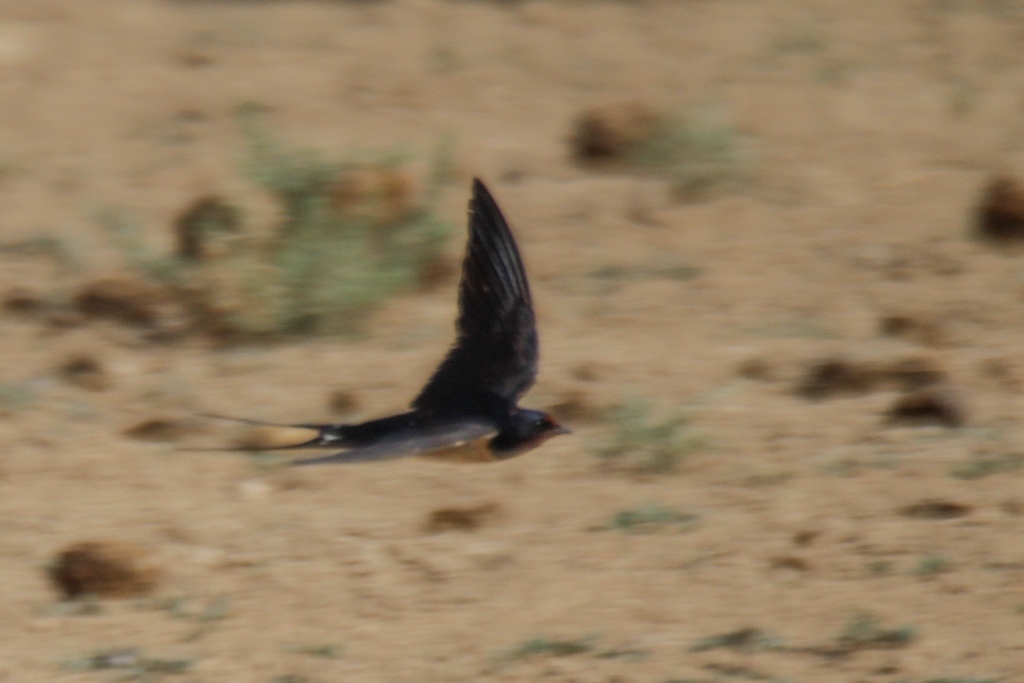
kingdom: Animalia
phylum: Chordata
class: Aves
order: Passeriformes
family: Hirundinidae
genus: Hirundo
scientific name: Hirundo rustica
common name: Barn swallow
